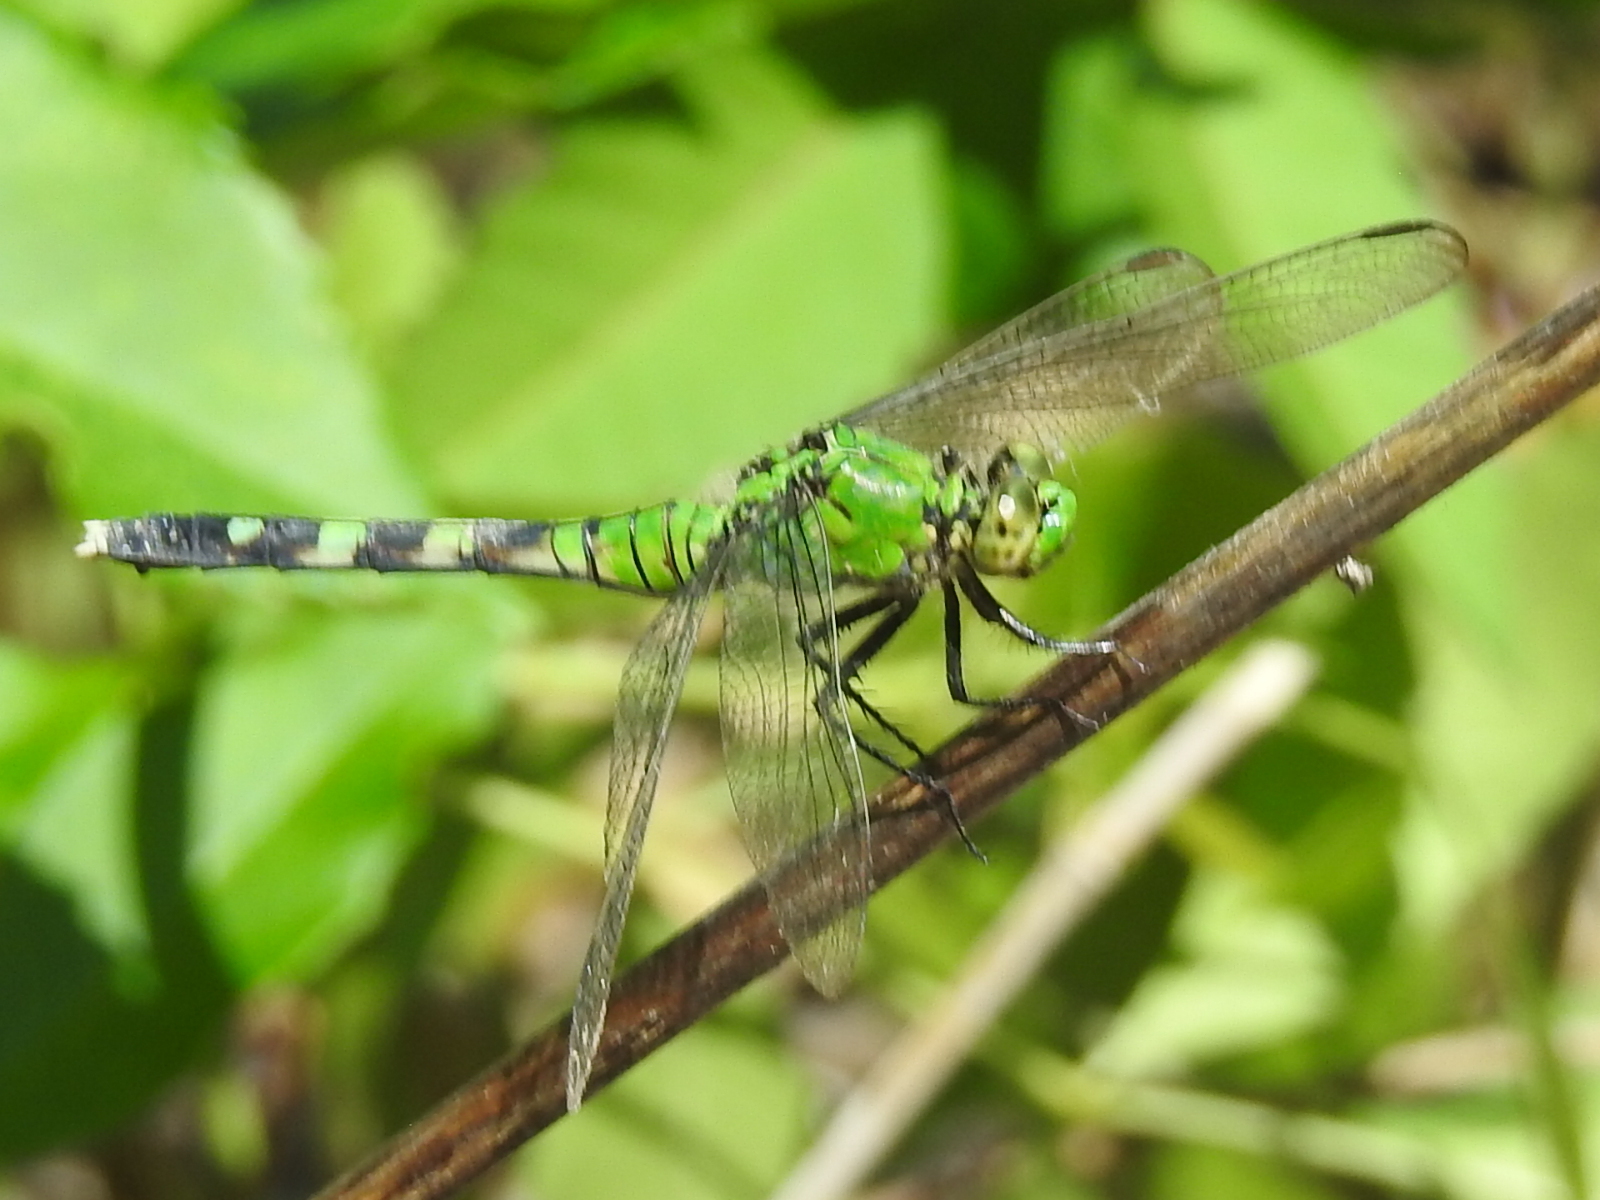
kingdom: Animalia
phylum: Arthropoda
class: Insecta
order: Odonata
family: Libellulidae
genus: Erythemis
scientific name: Erythemis simplicicollis
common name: Eastern pondhawk
